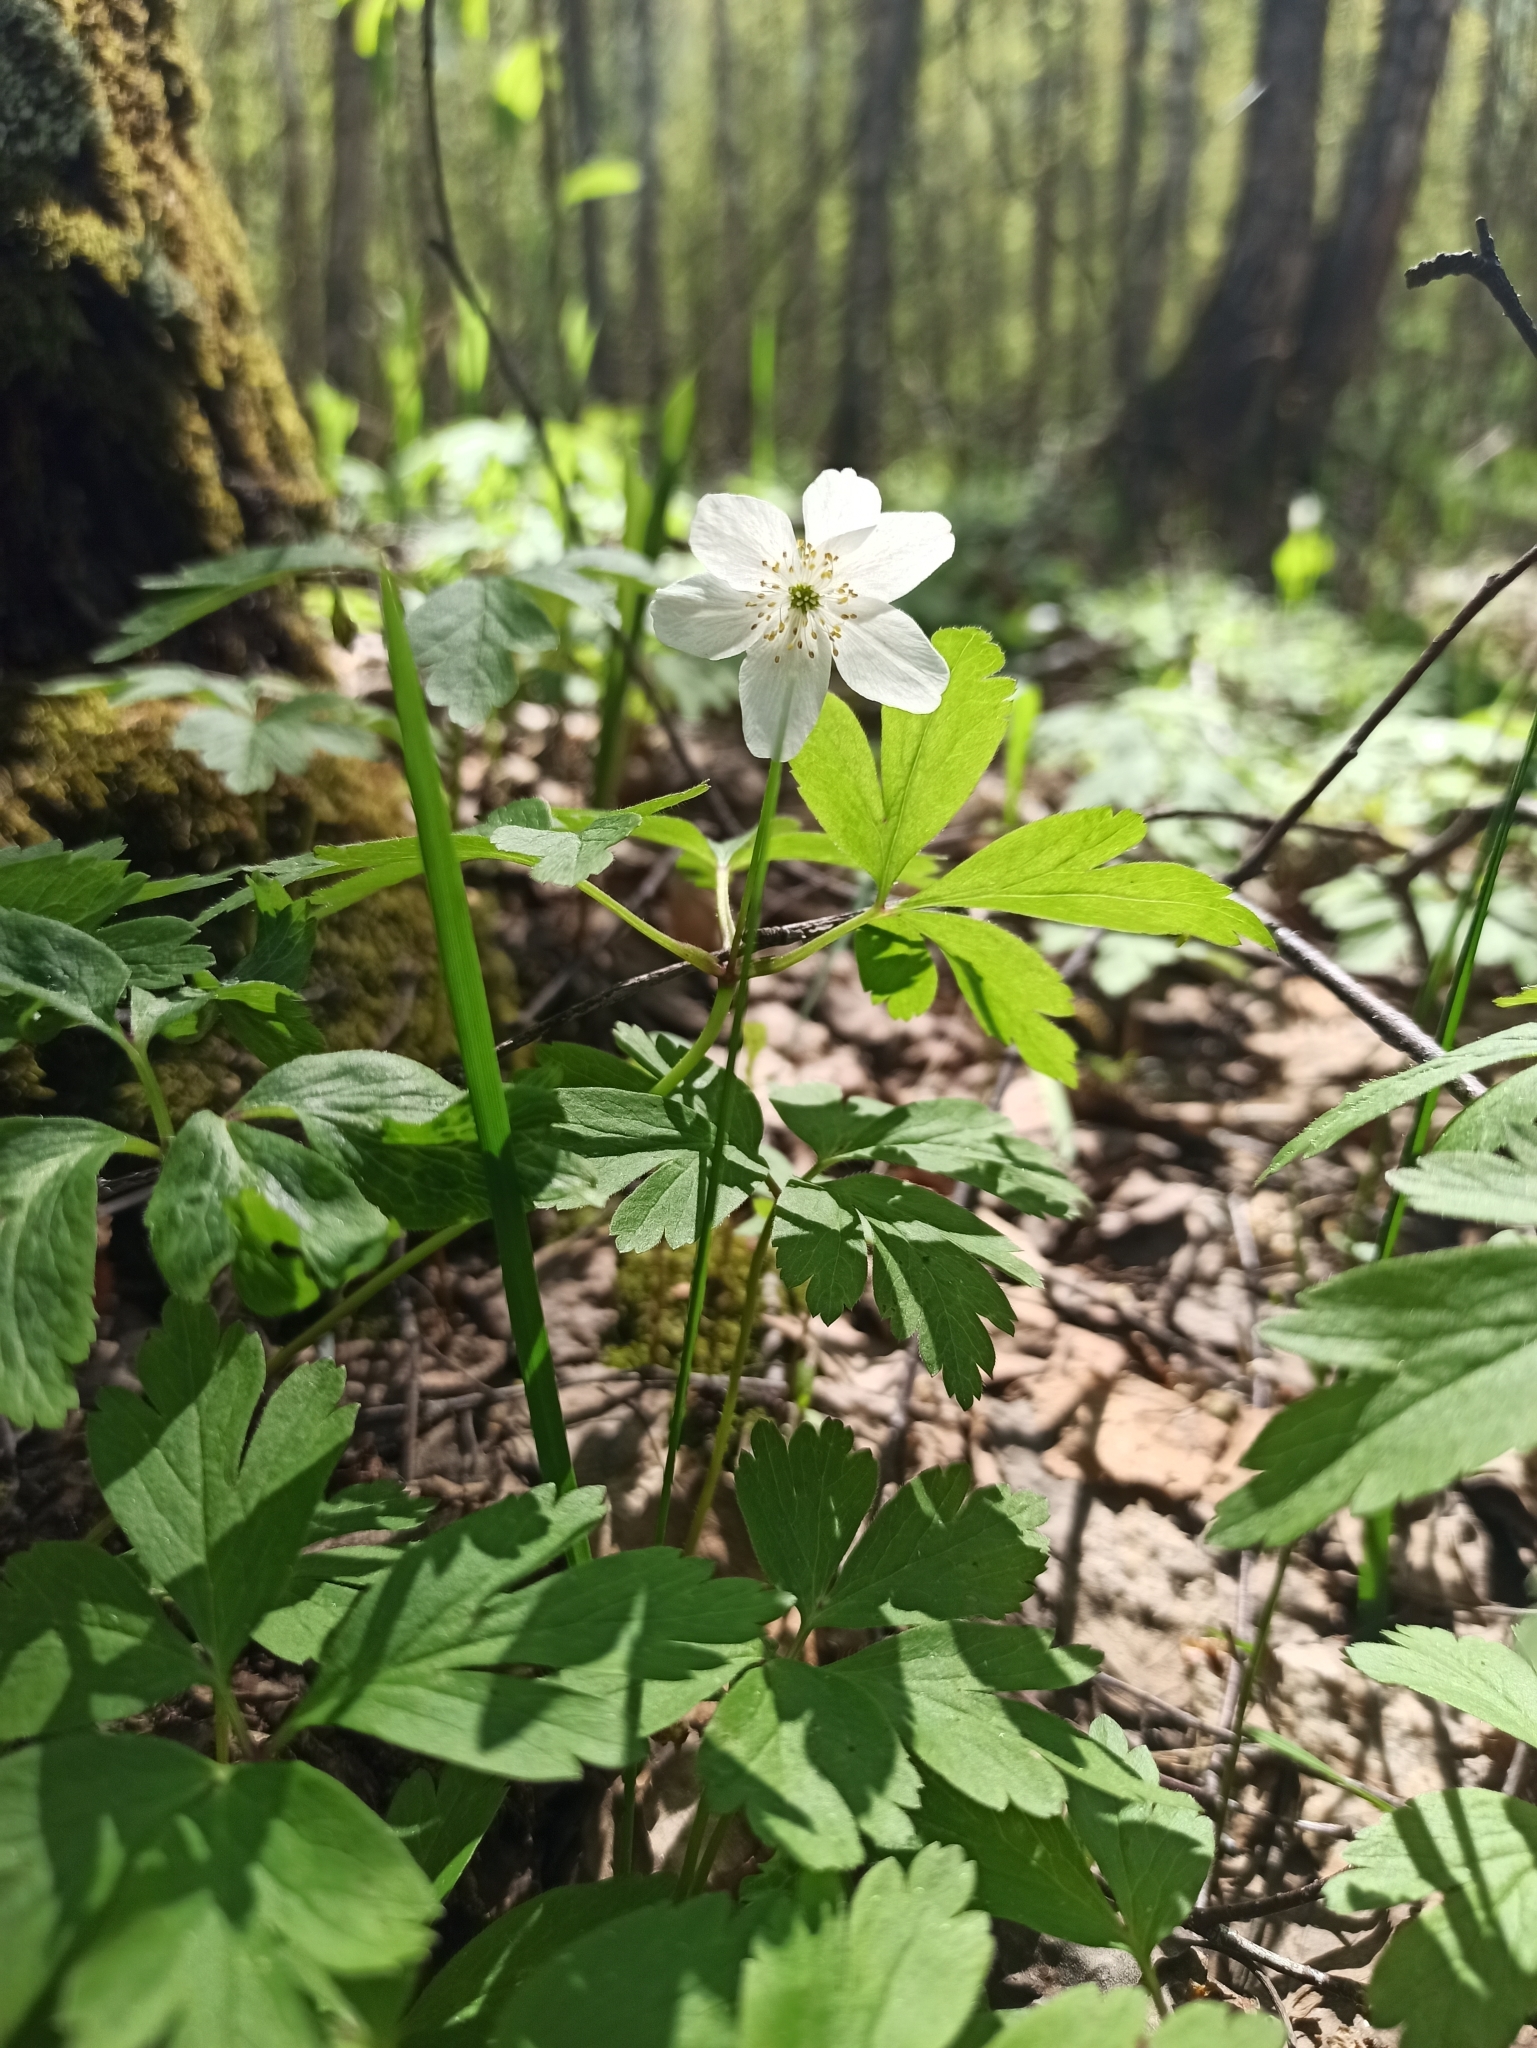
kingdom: Plantae
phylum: Tracheophyta
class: Magnoliopsida
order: Ranunculales
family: Ranunculaceae
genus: Anemone
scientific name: Anemone nemorosa
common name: Wood anemone
